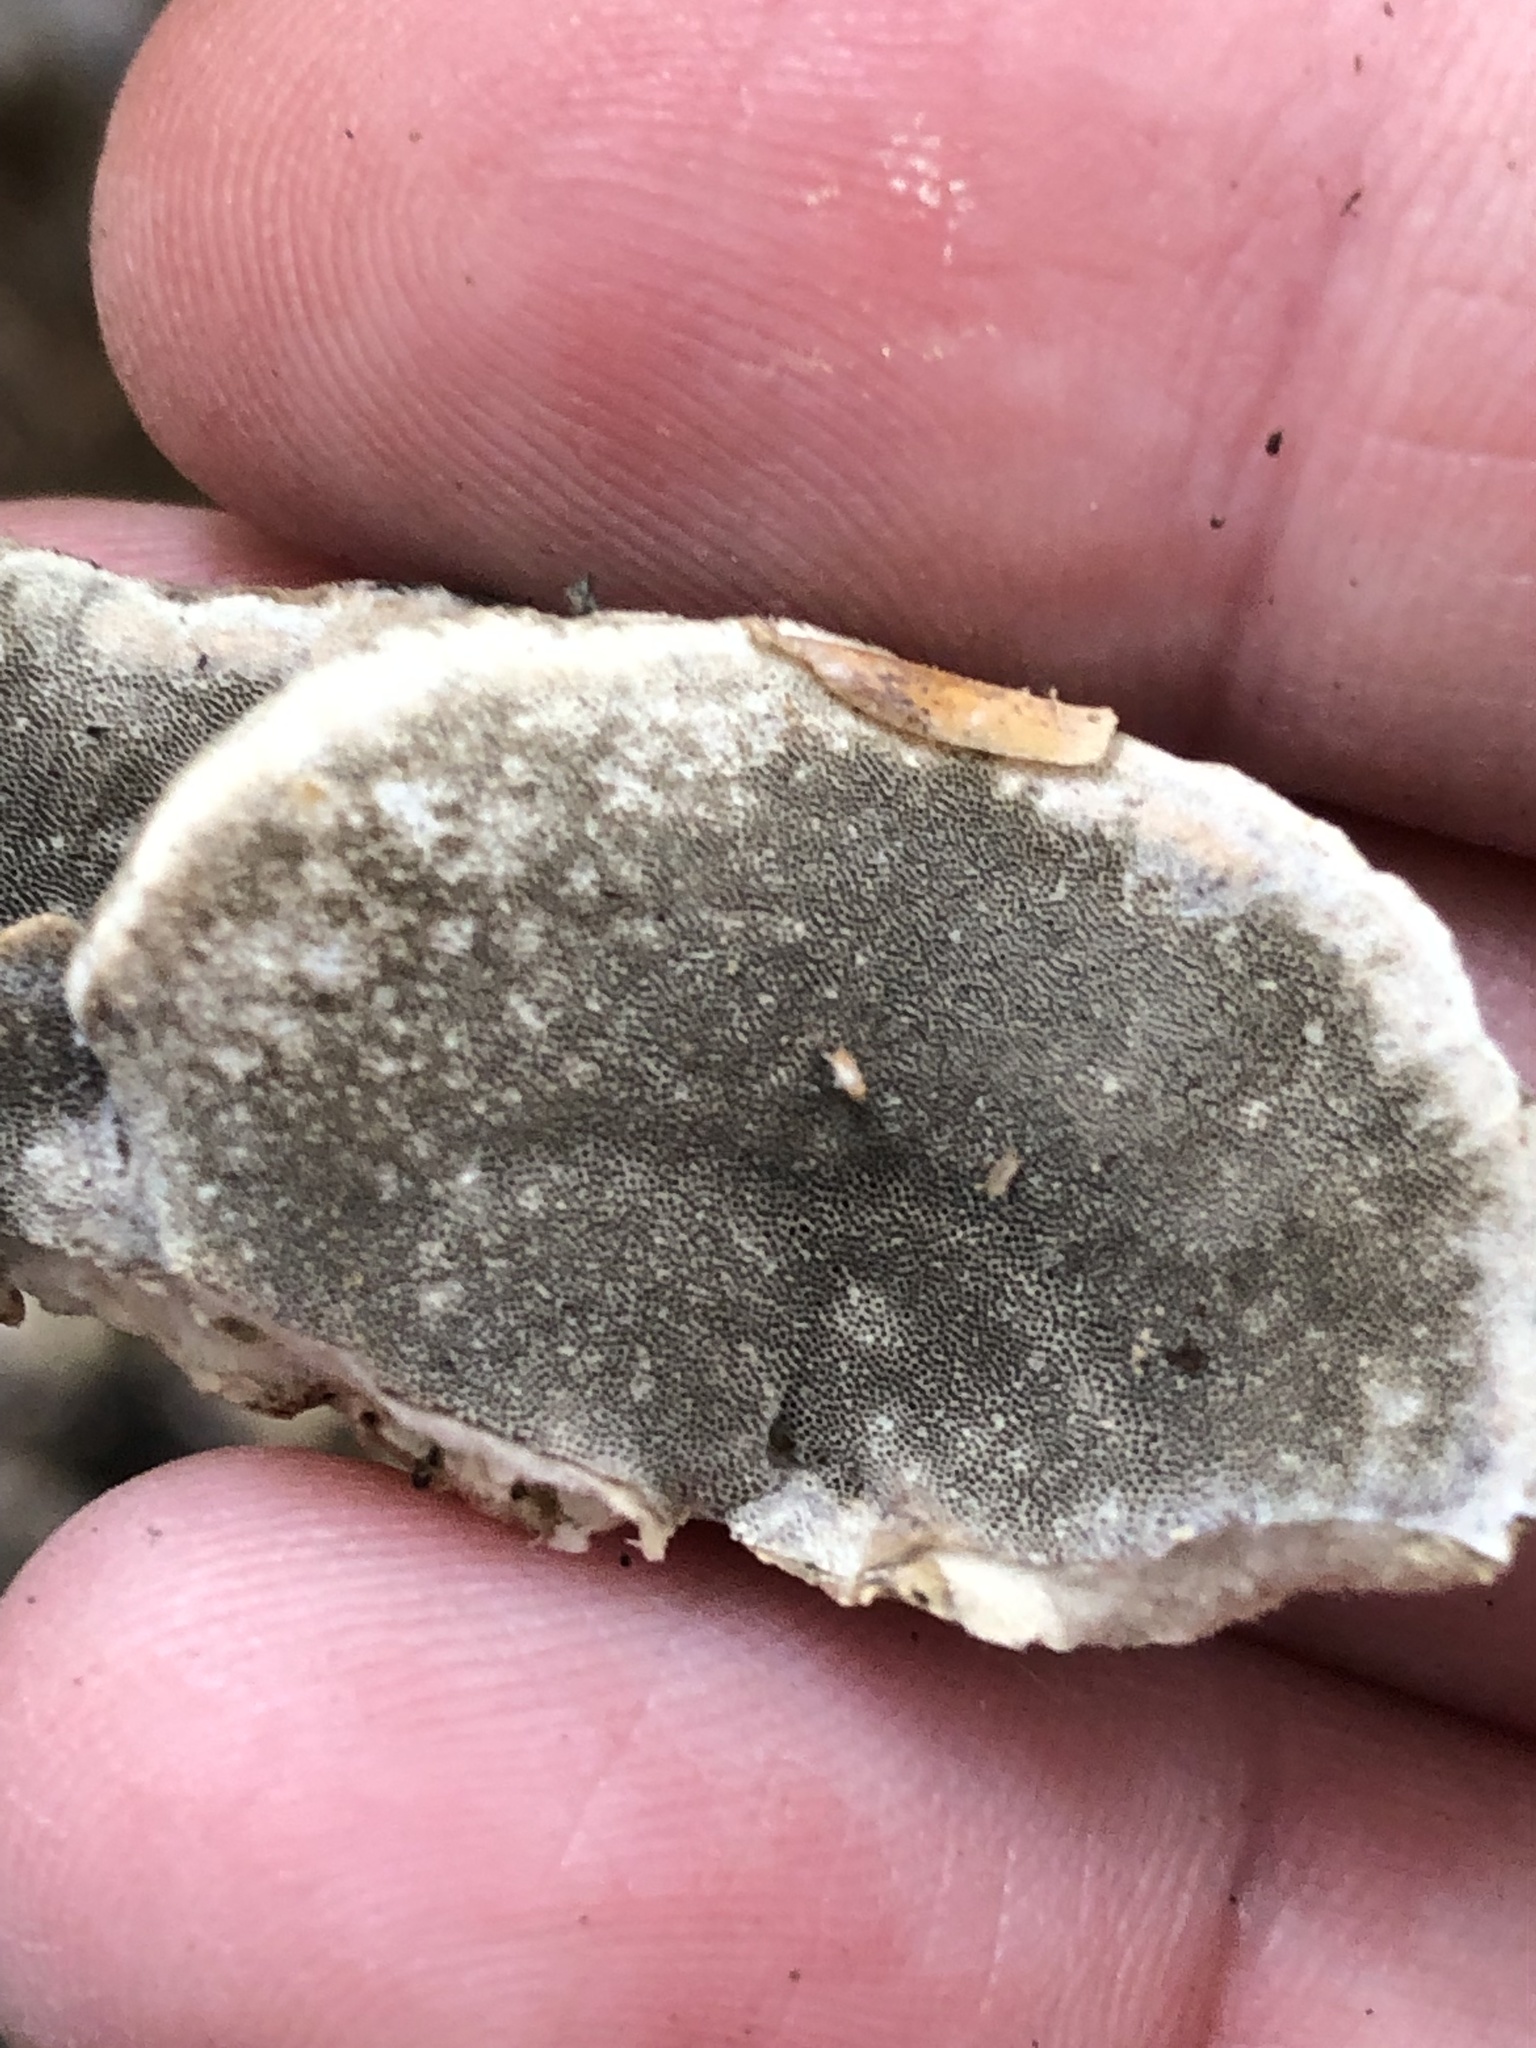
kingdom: Fungi
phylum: Basidiomycota
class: Agaricomycetes
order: Polyporales
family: Phanerochaetaceae
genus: Bjerkandera
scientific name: Bjerkandera adusta
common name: Smoky bracket
